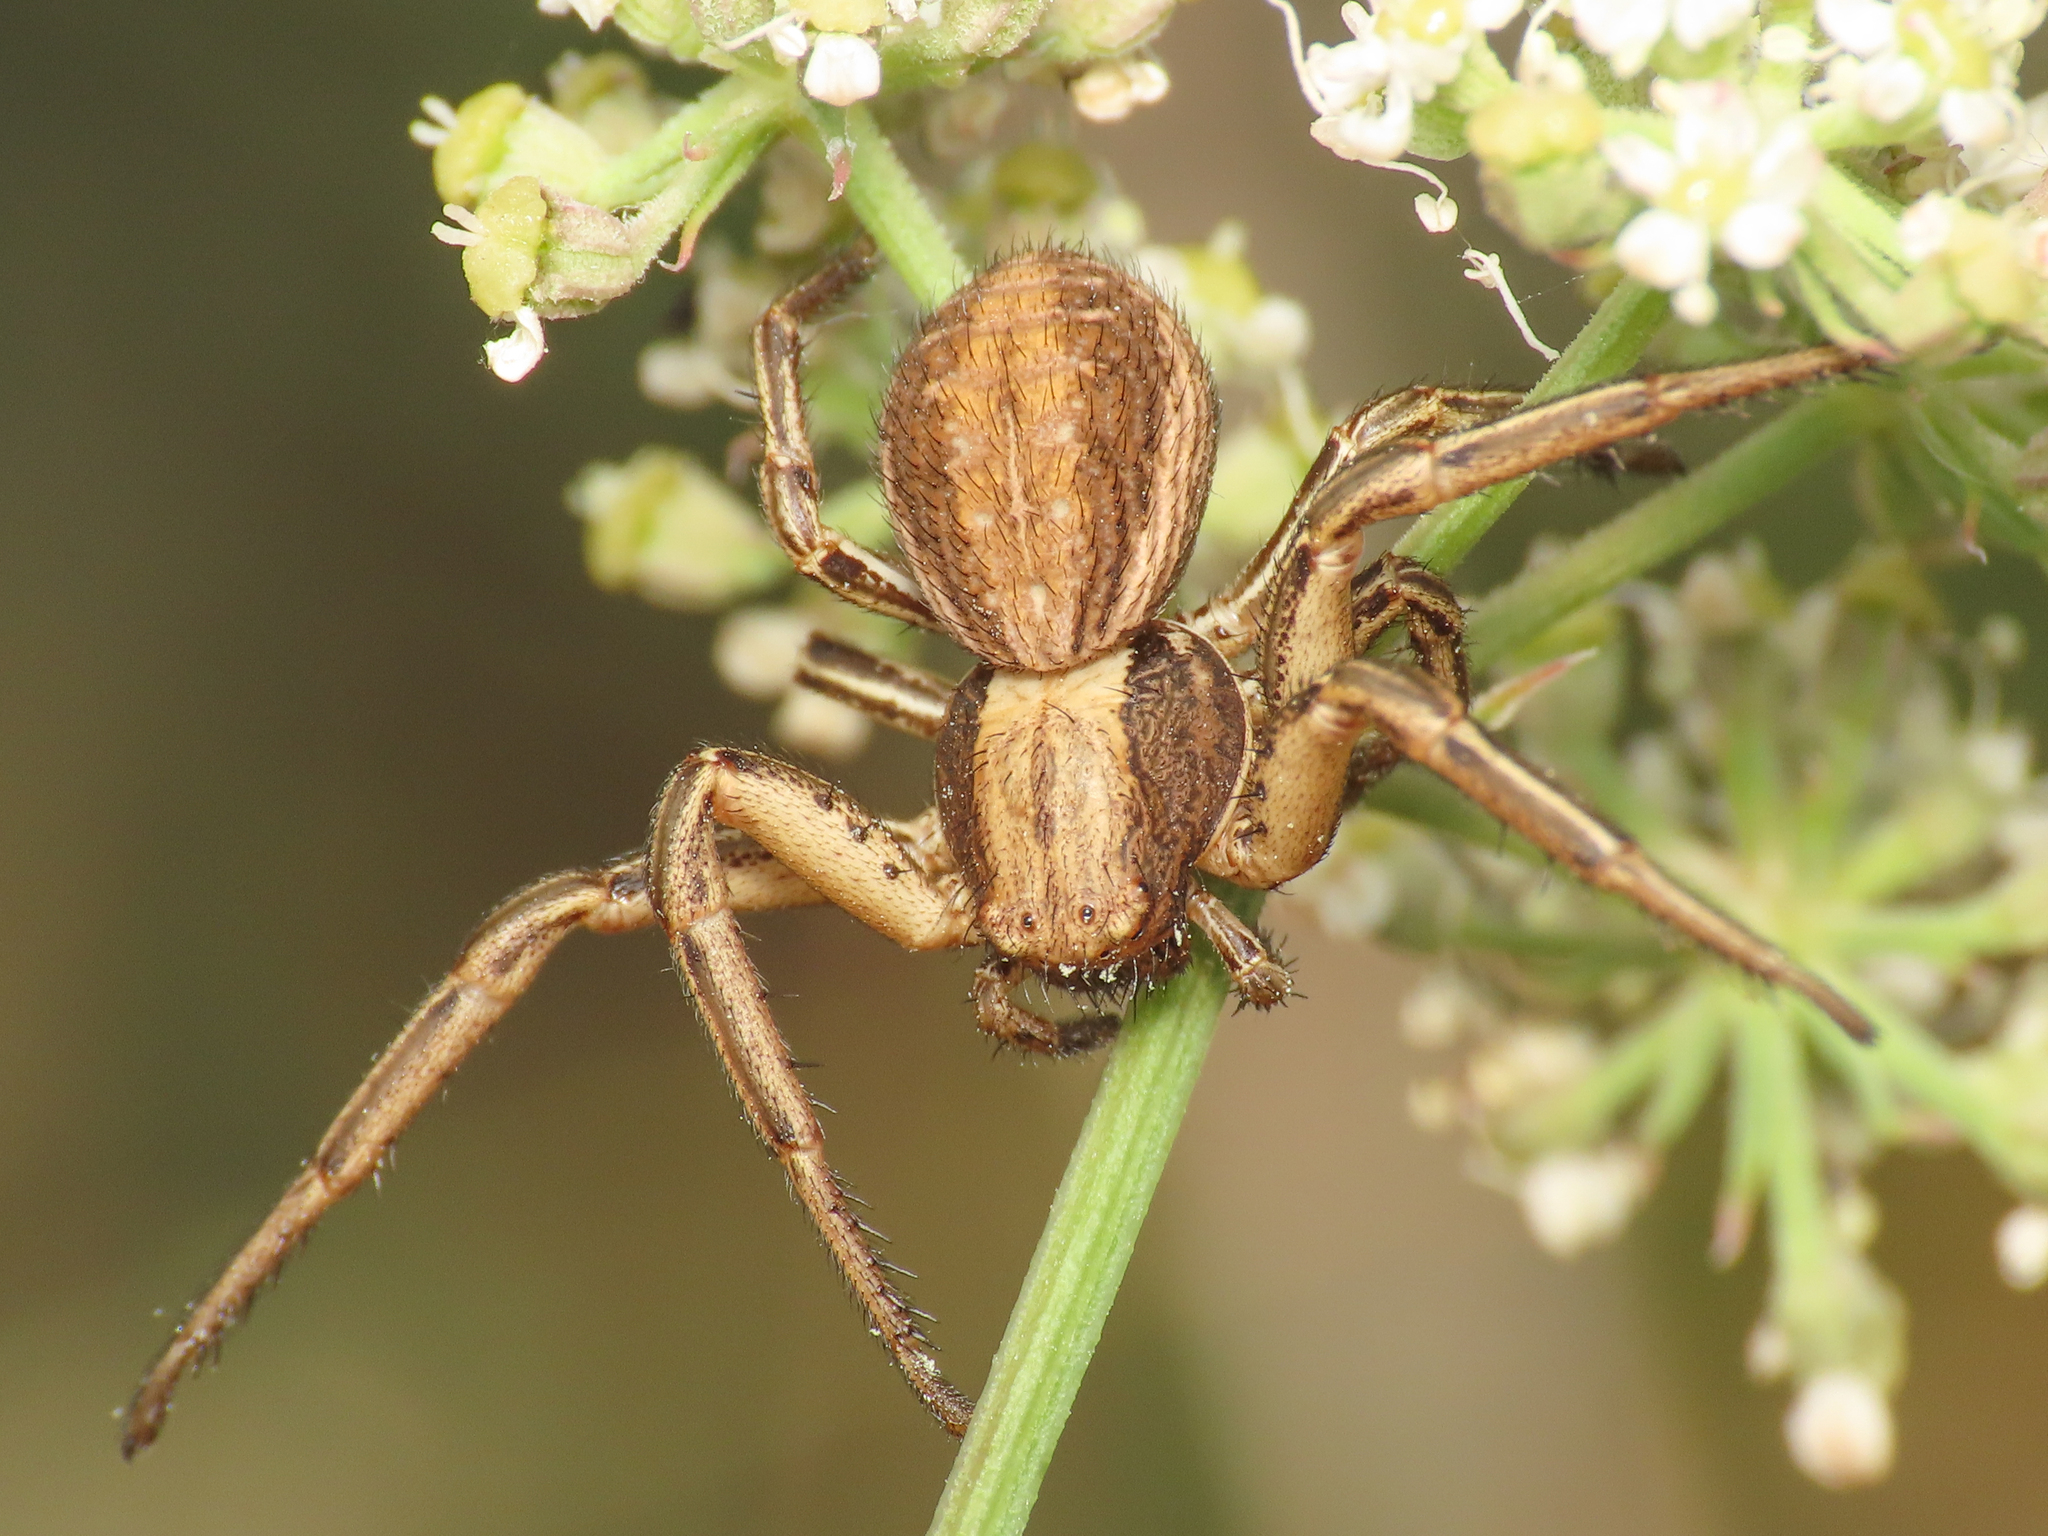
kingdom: Animalia
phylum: Arthropoda
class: Arachnida
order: Araneae
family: Thomisidae
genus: Spiracme
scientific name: Spiracme striatipes
